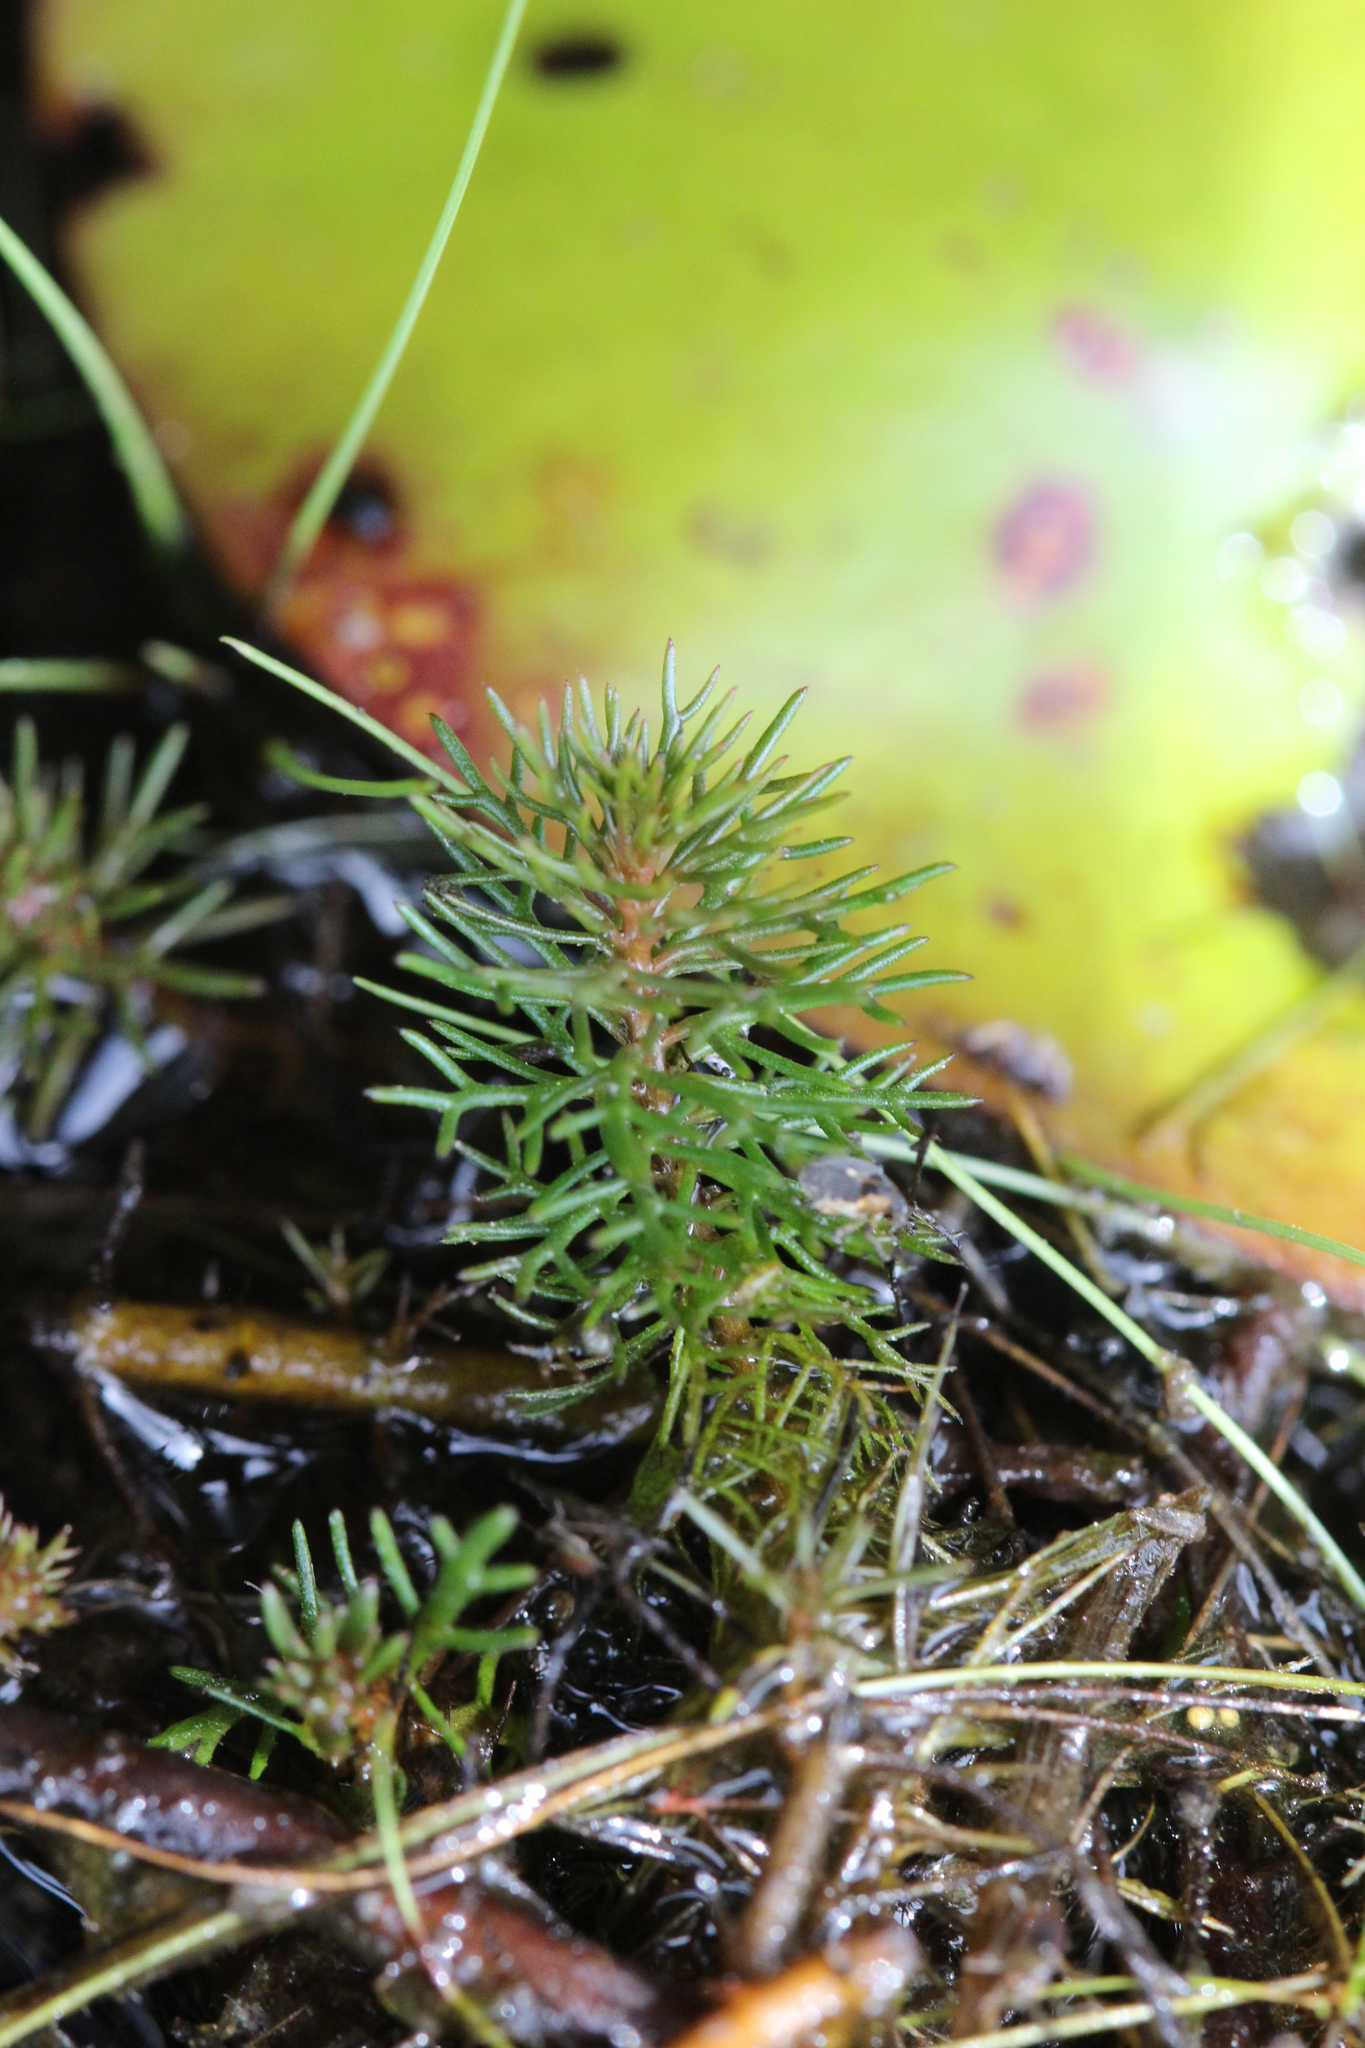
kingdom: Plantae
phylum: Tracheophyta
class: Magnoliopsida
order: Saxifragales
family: Haloragaceae
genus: Proserpinaca
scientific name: Proserpinaca pectinata
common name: Comb-leaved mermaidweed
